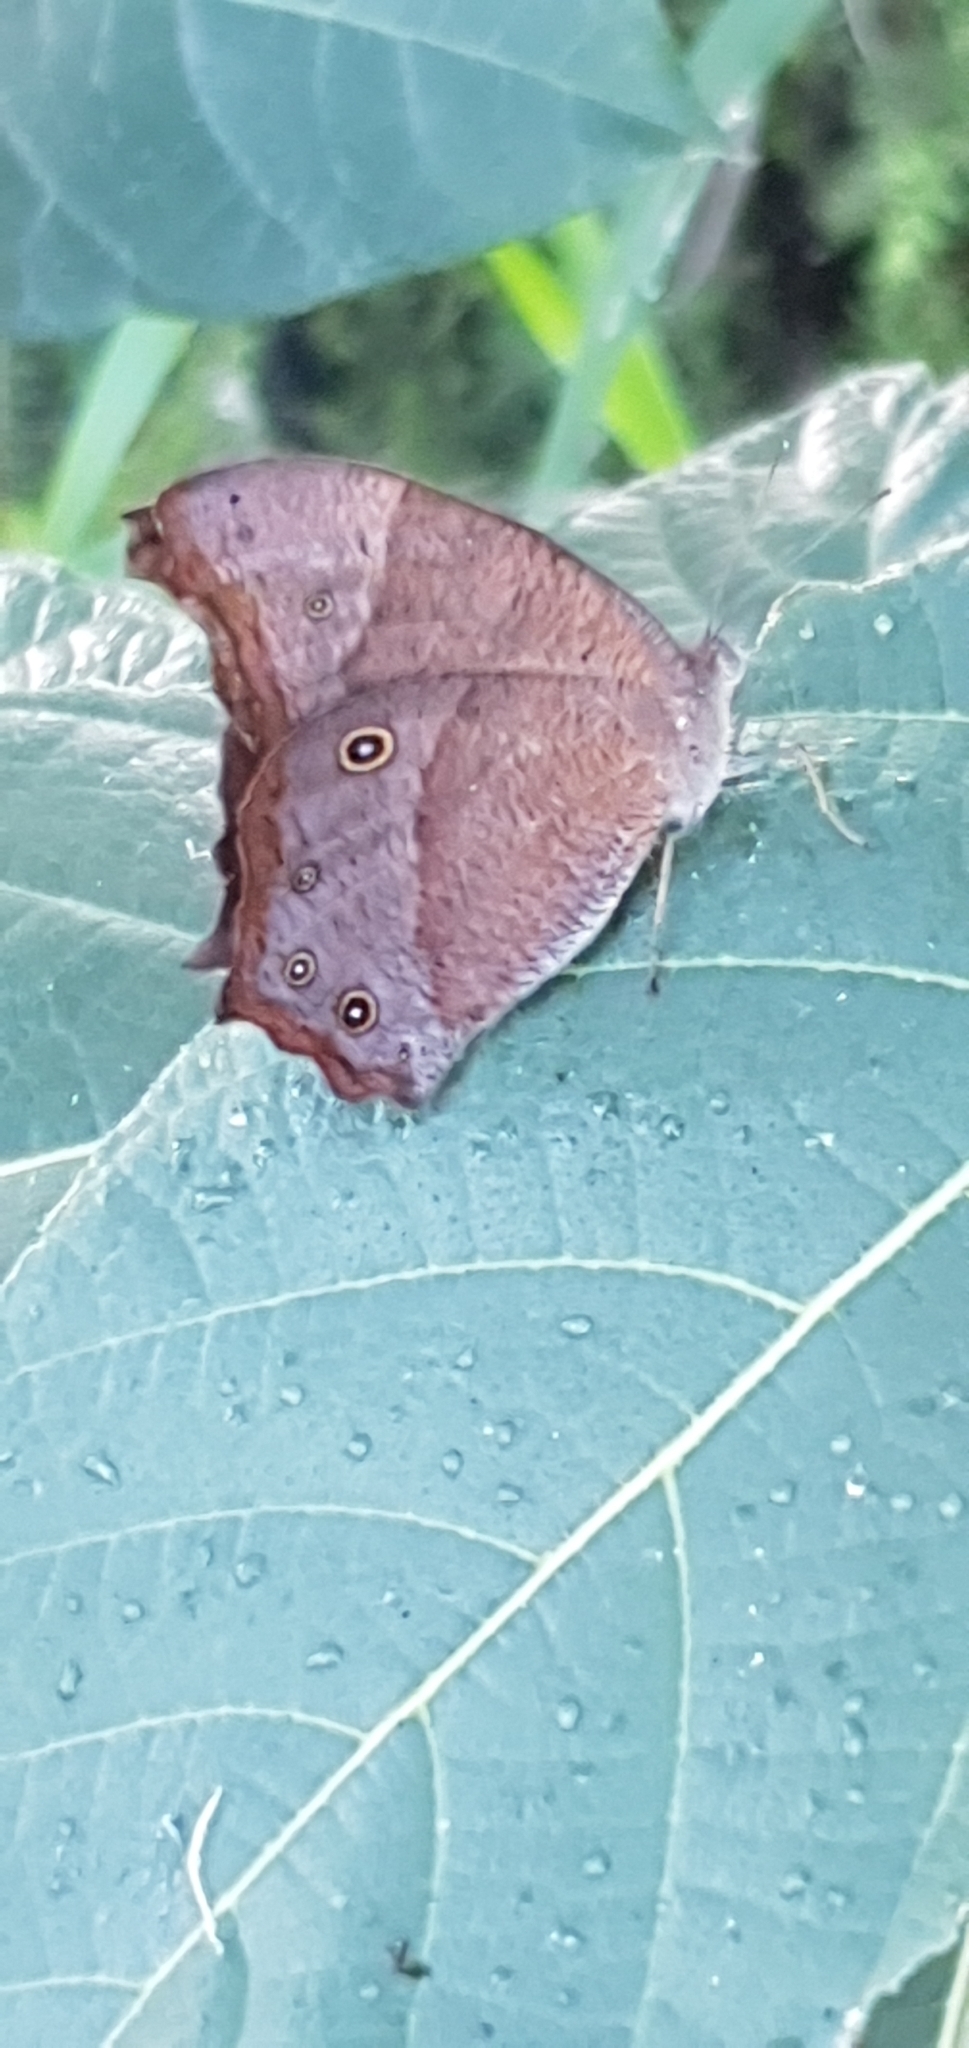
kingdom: Animalia
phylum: Arthropoda
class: Insecta
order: Lepidoptera
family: Nymphalidae
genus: Melanitis
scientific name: Melanitis leda
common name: Twilight brown
